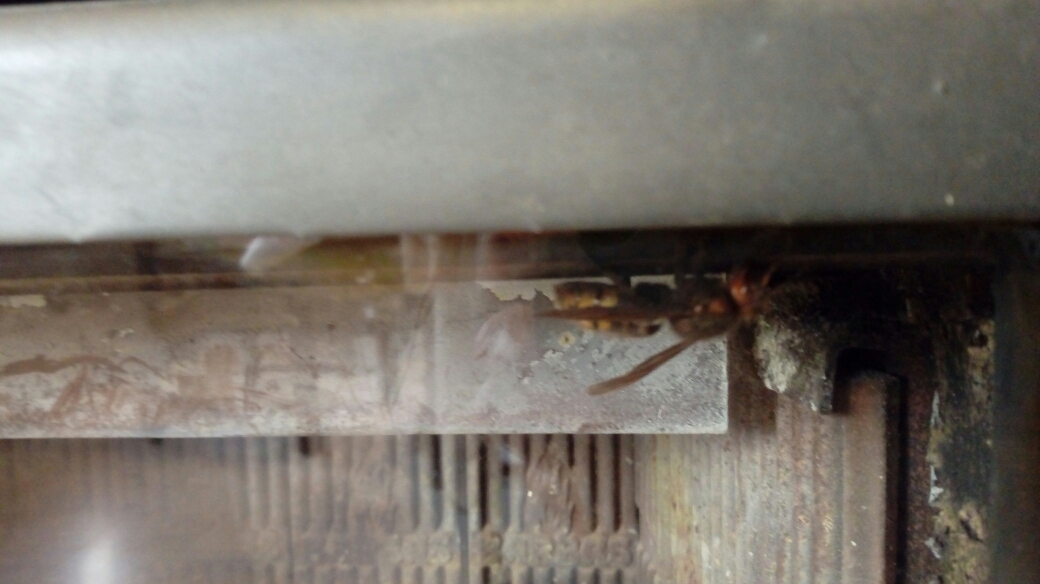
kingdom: Animalia
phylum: Arthropoda
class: Insecta
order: Hymenoptera
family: Vespidae
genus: Vespa
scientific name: Vespa crabro
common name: Hornet
